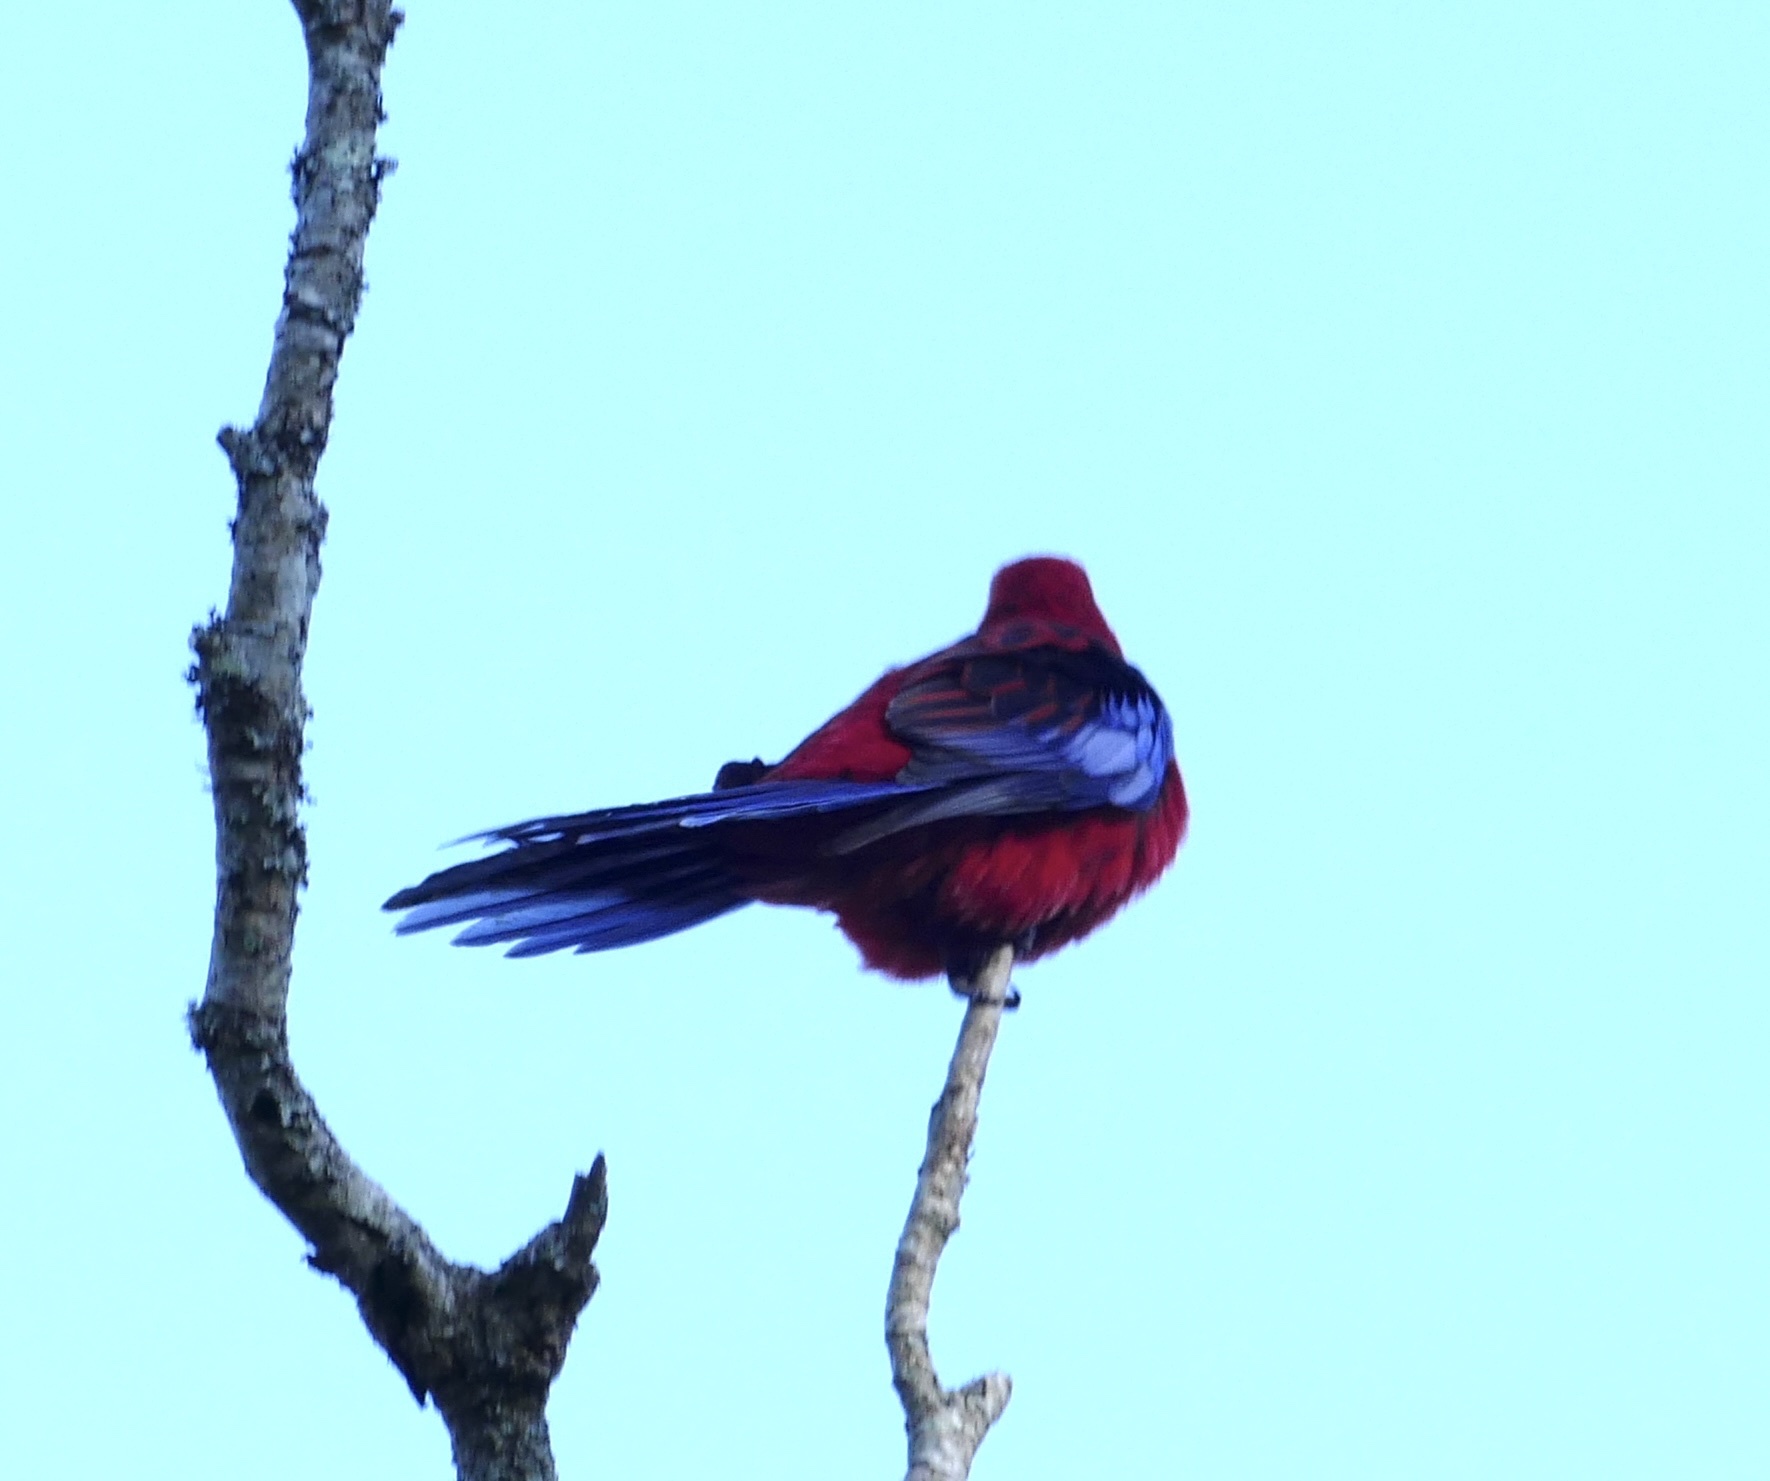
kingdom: Animalia
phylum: Chordata
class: Aves
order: Psittaciformes
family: Psittacidae
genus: Platycercus
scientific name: Platycercus elegans
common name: Crimson rosella
